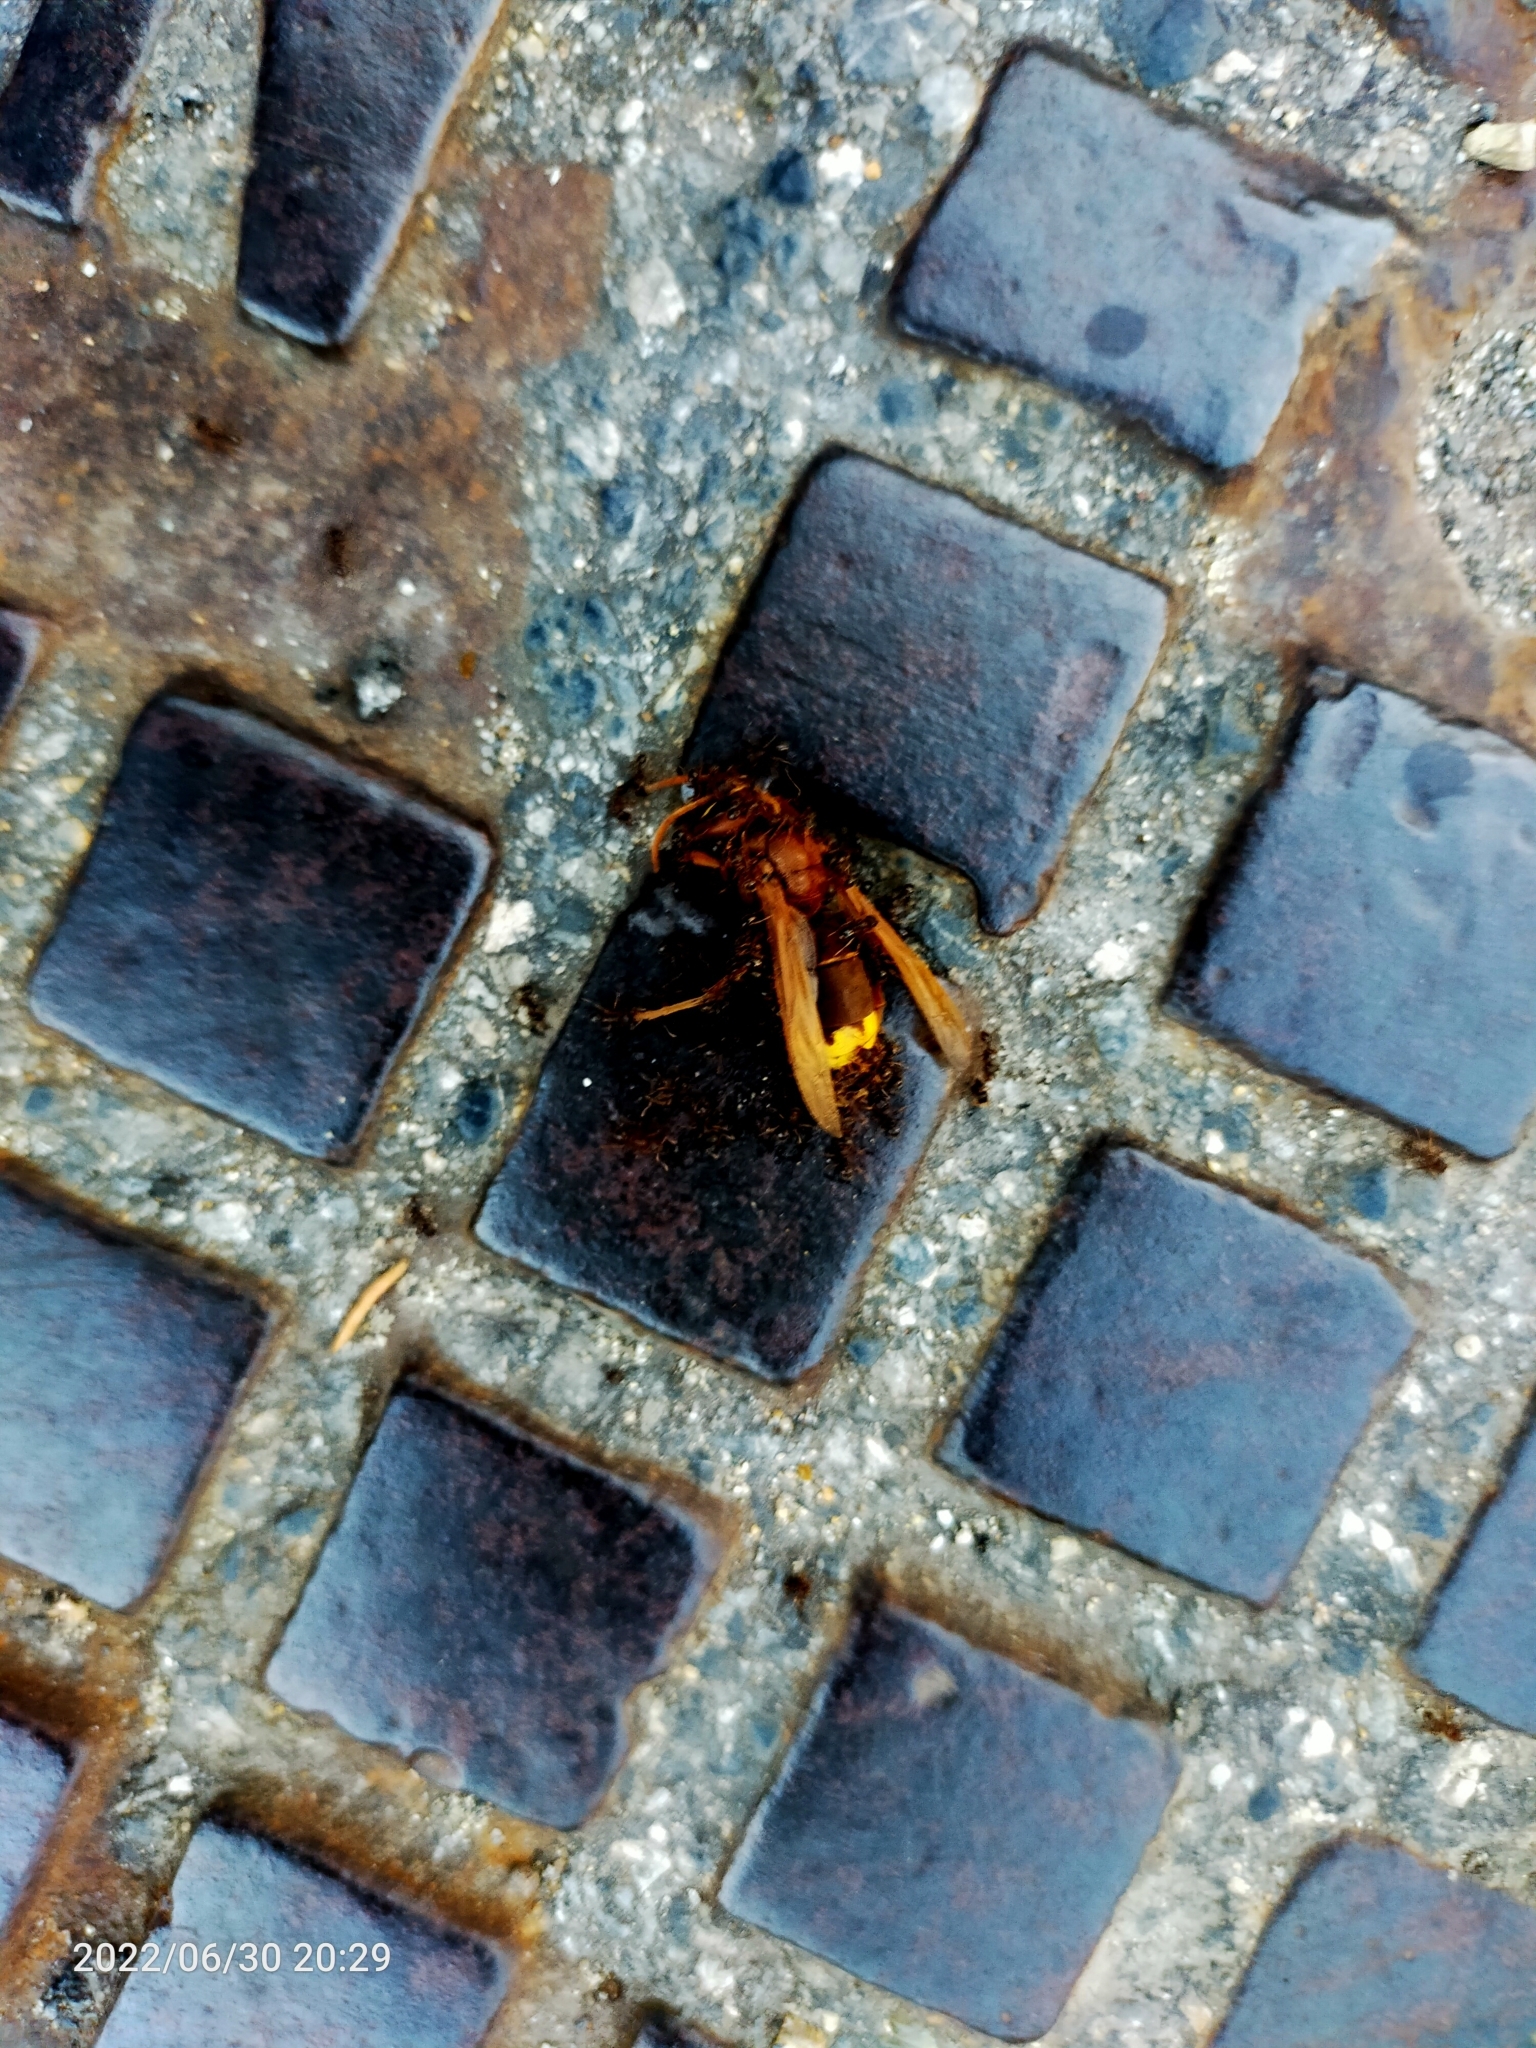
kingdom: Animalia
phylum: Arthropoda
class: Insecta
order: Hymenoptera
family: Vespidae
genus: Vespa
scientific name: Vespa orientalis
